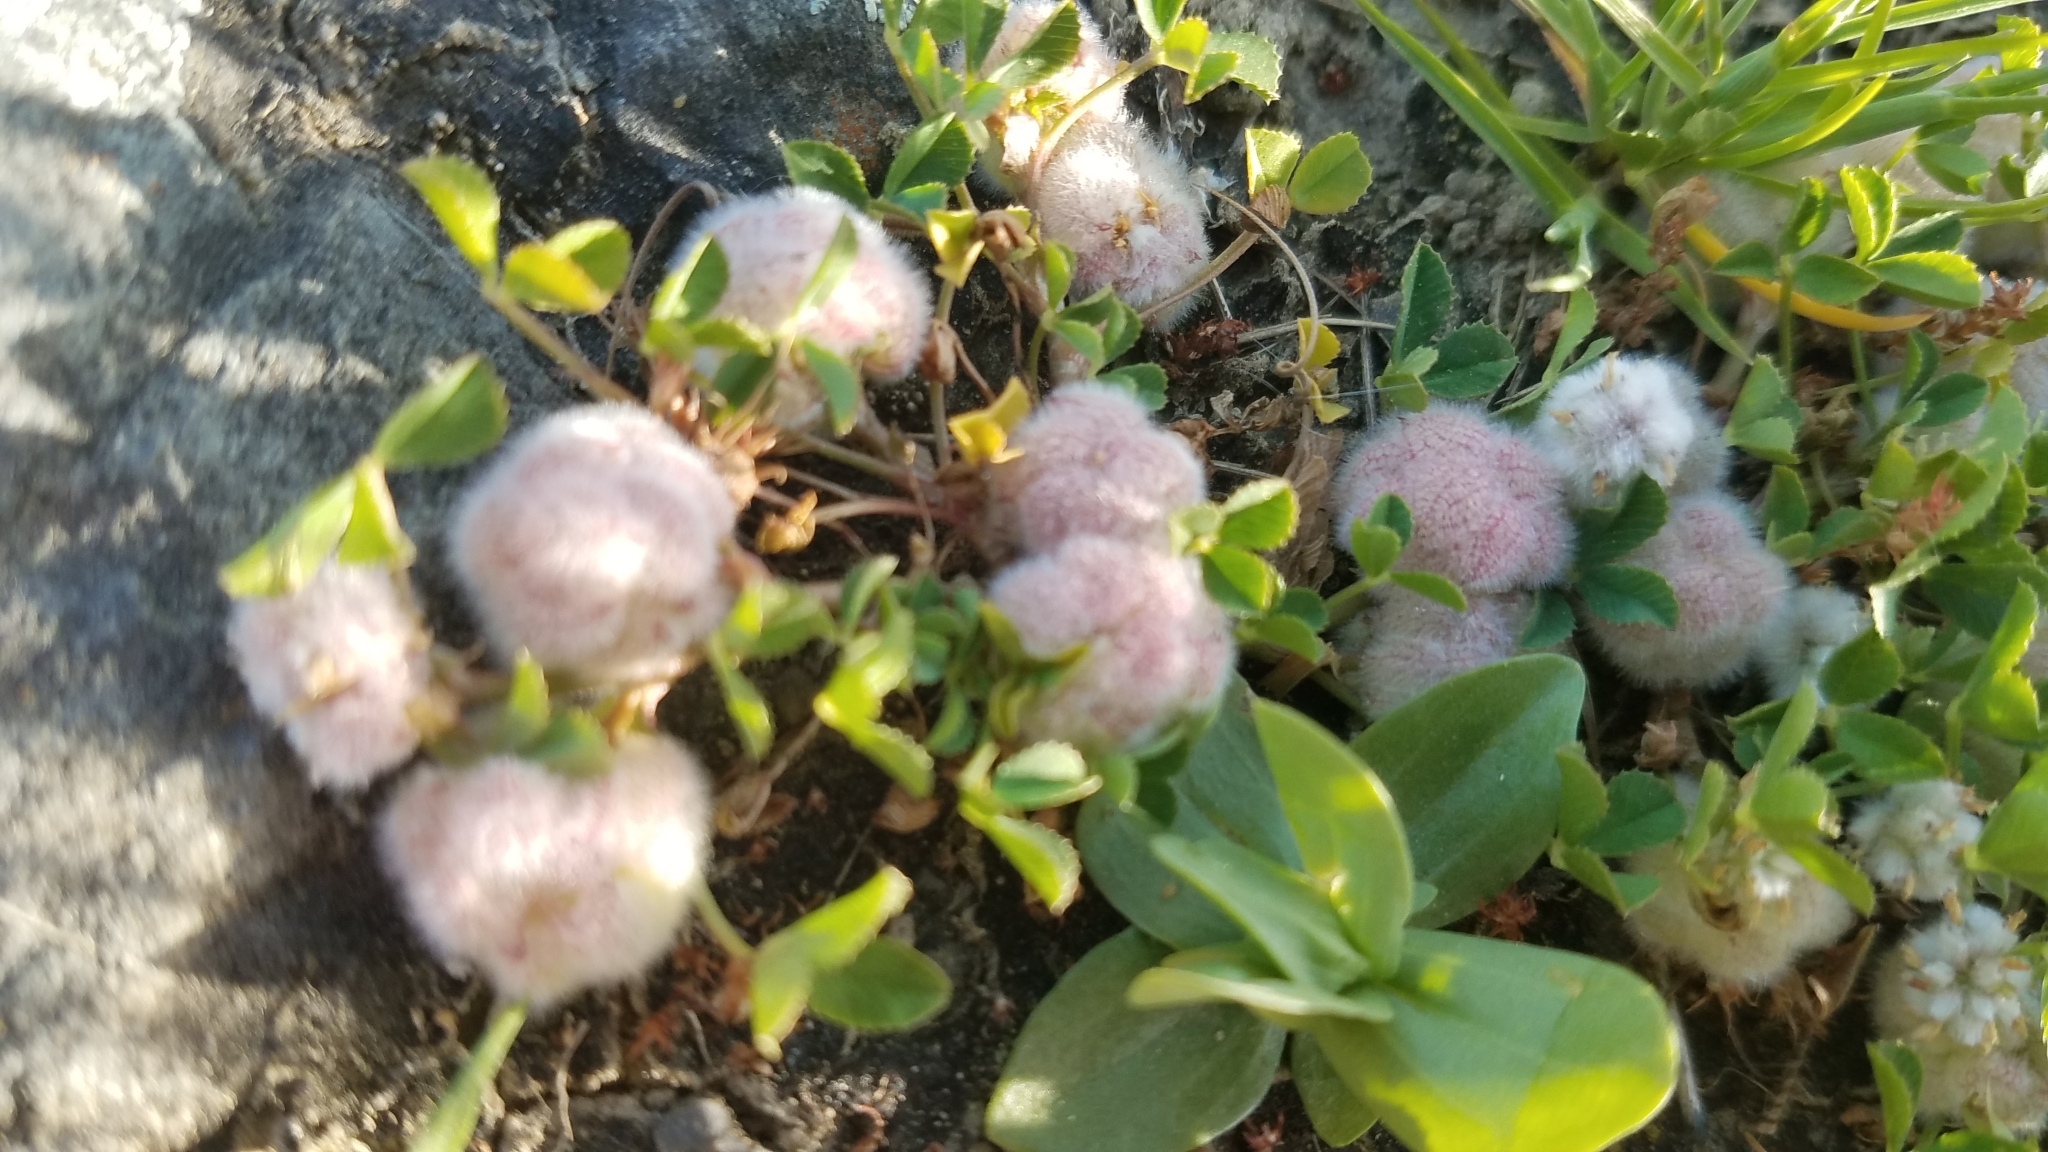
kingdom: Plantae
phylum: Tracheophyta
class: Magnoliopsida
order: Fabales
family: Fabaceae
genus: Trifolium
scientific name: Trifolium tomentosum
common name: Woolly clover
